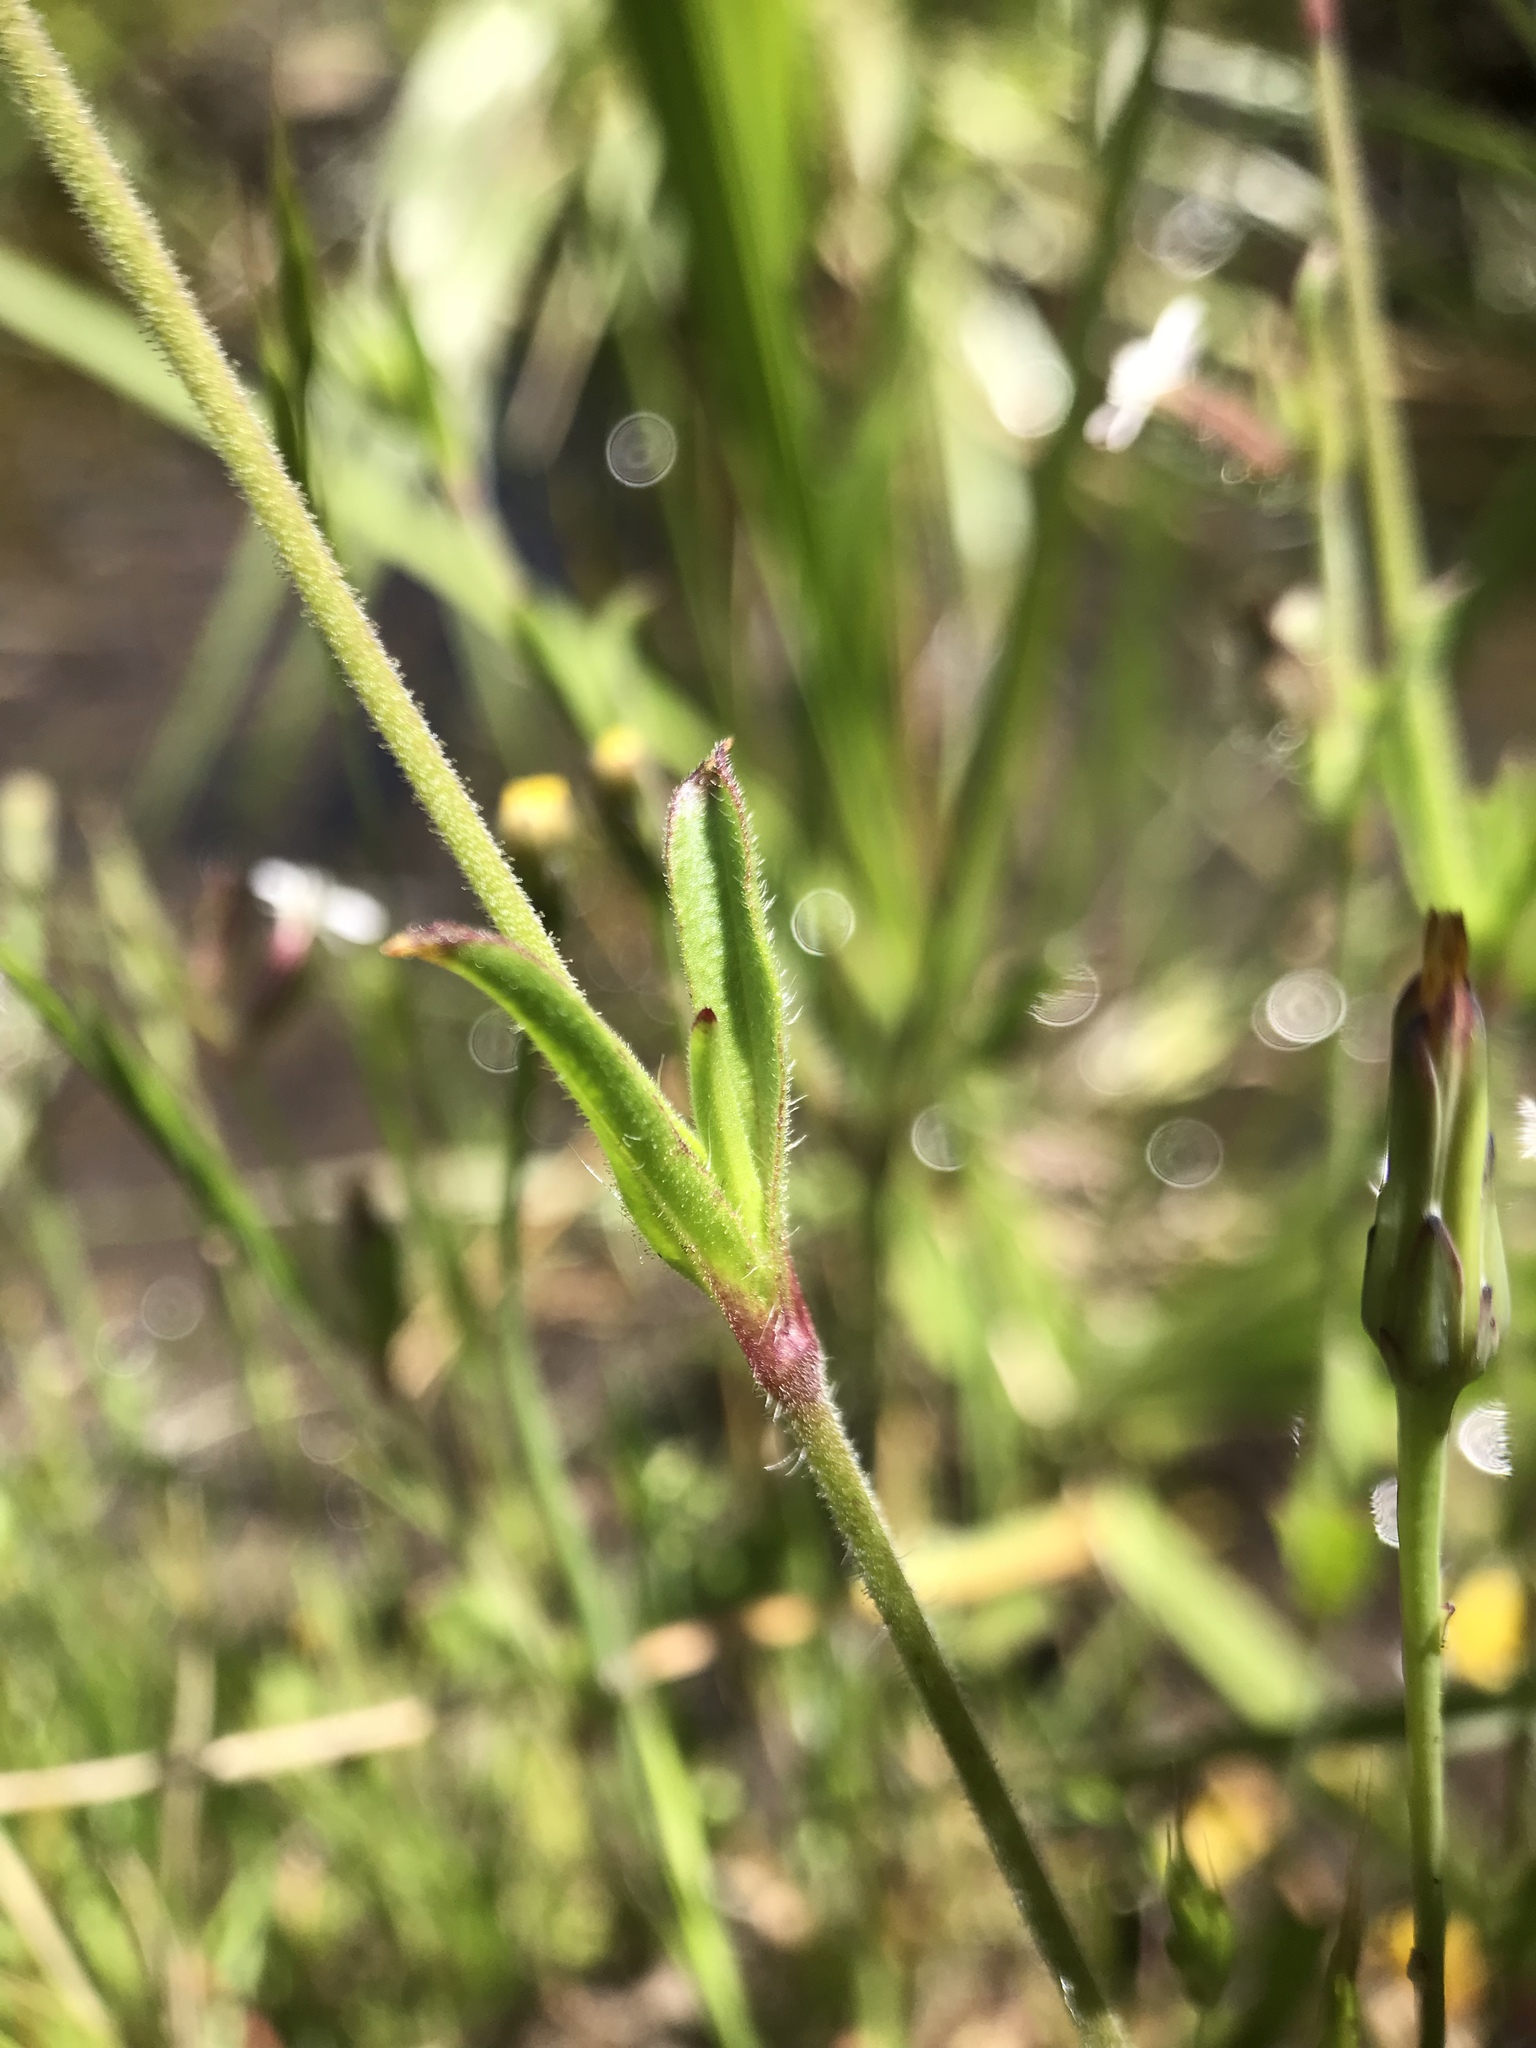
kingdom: Plantae
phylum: Tracheophyta
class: Magnoliopsida
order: Caryophyllales
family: Caryophyllaceae
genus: Silene
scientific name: Silene gallica
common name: Small-flowered catchfly
